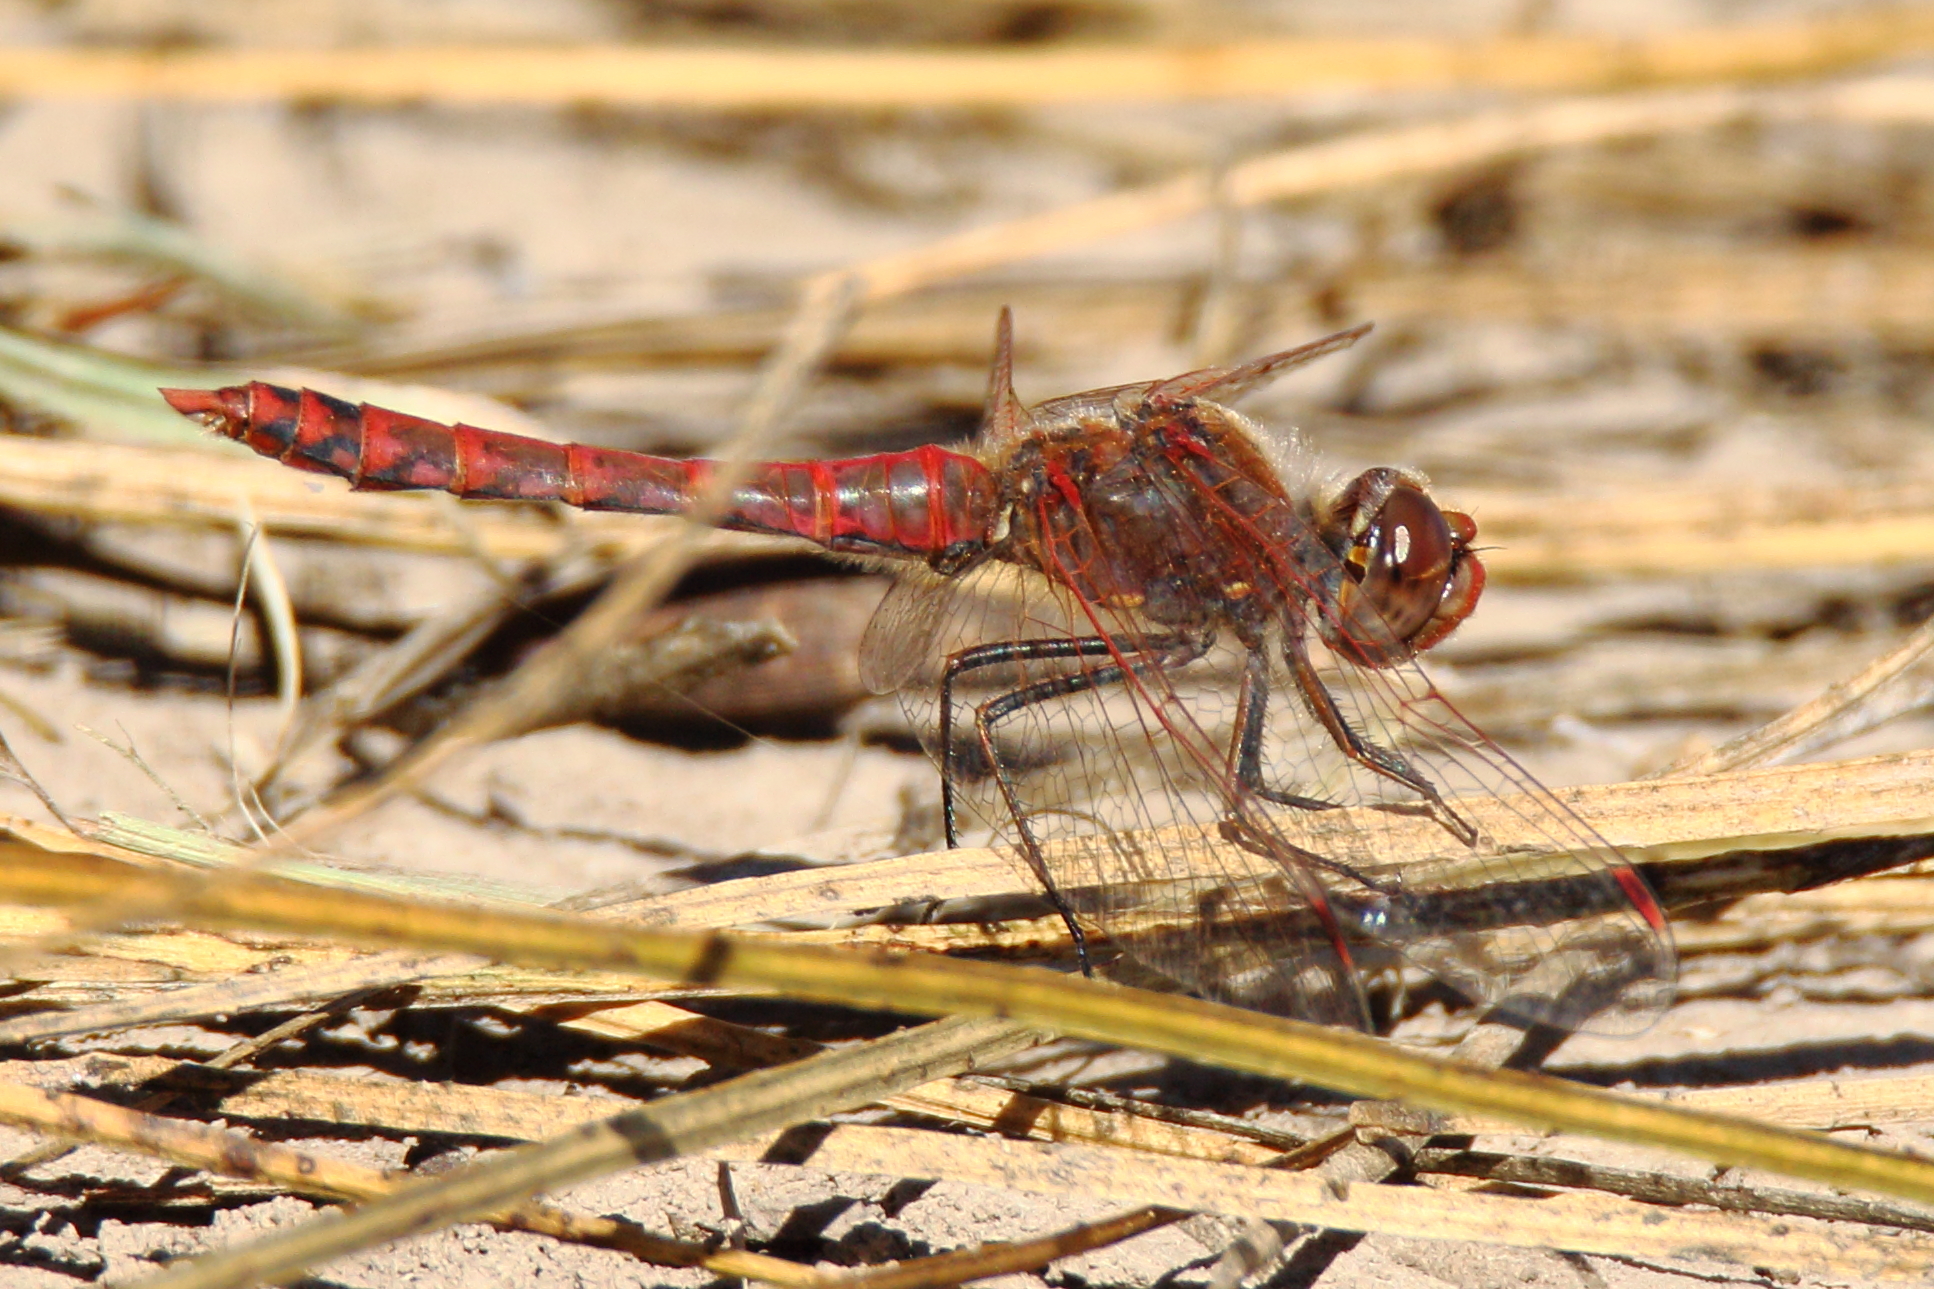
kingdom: Animalia
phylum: Arthropoda
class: Insecta
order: Odonata
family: Libellulidae
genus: Sympetrum
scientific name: Sympetrum corruptum
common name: Variegated meadowhawk
